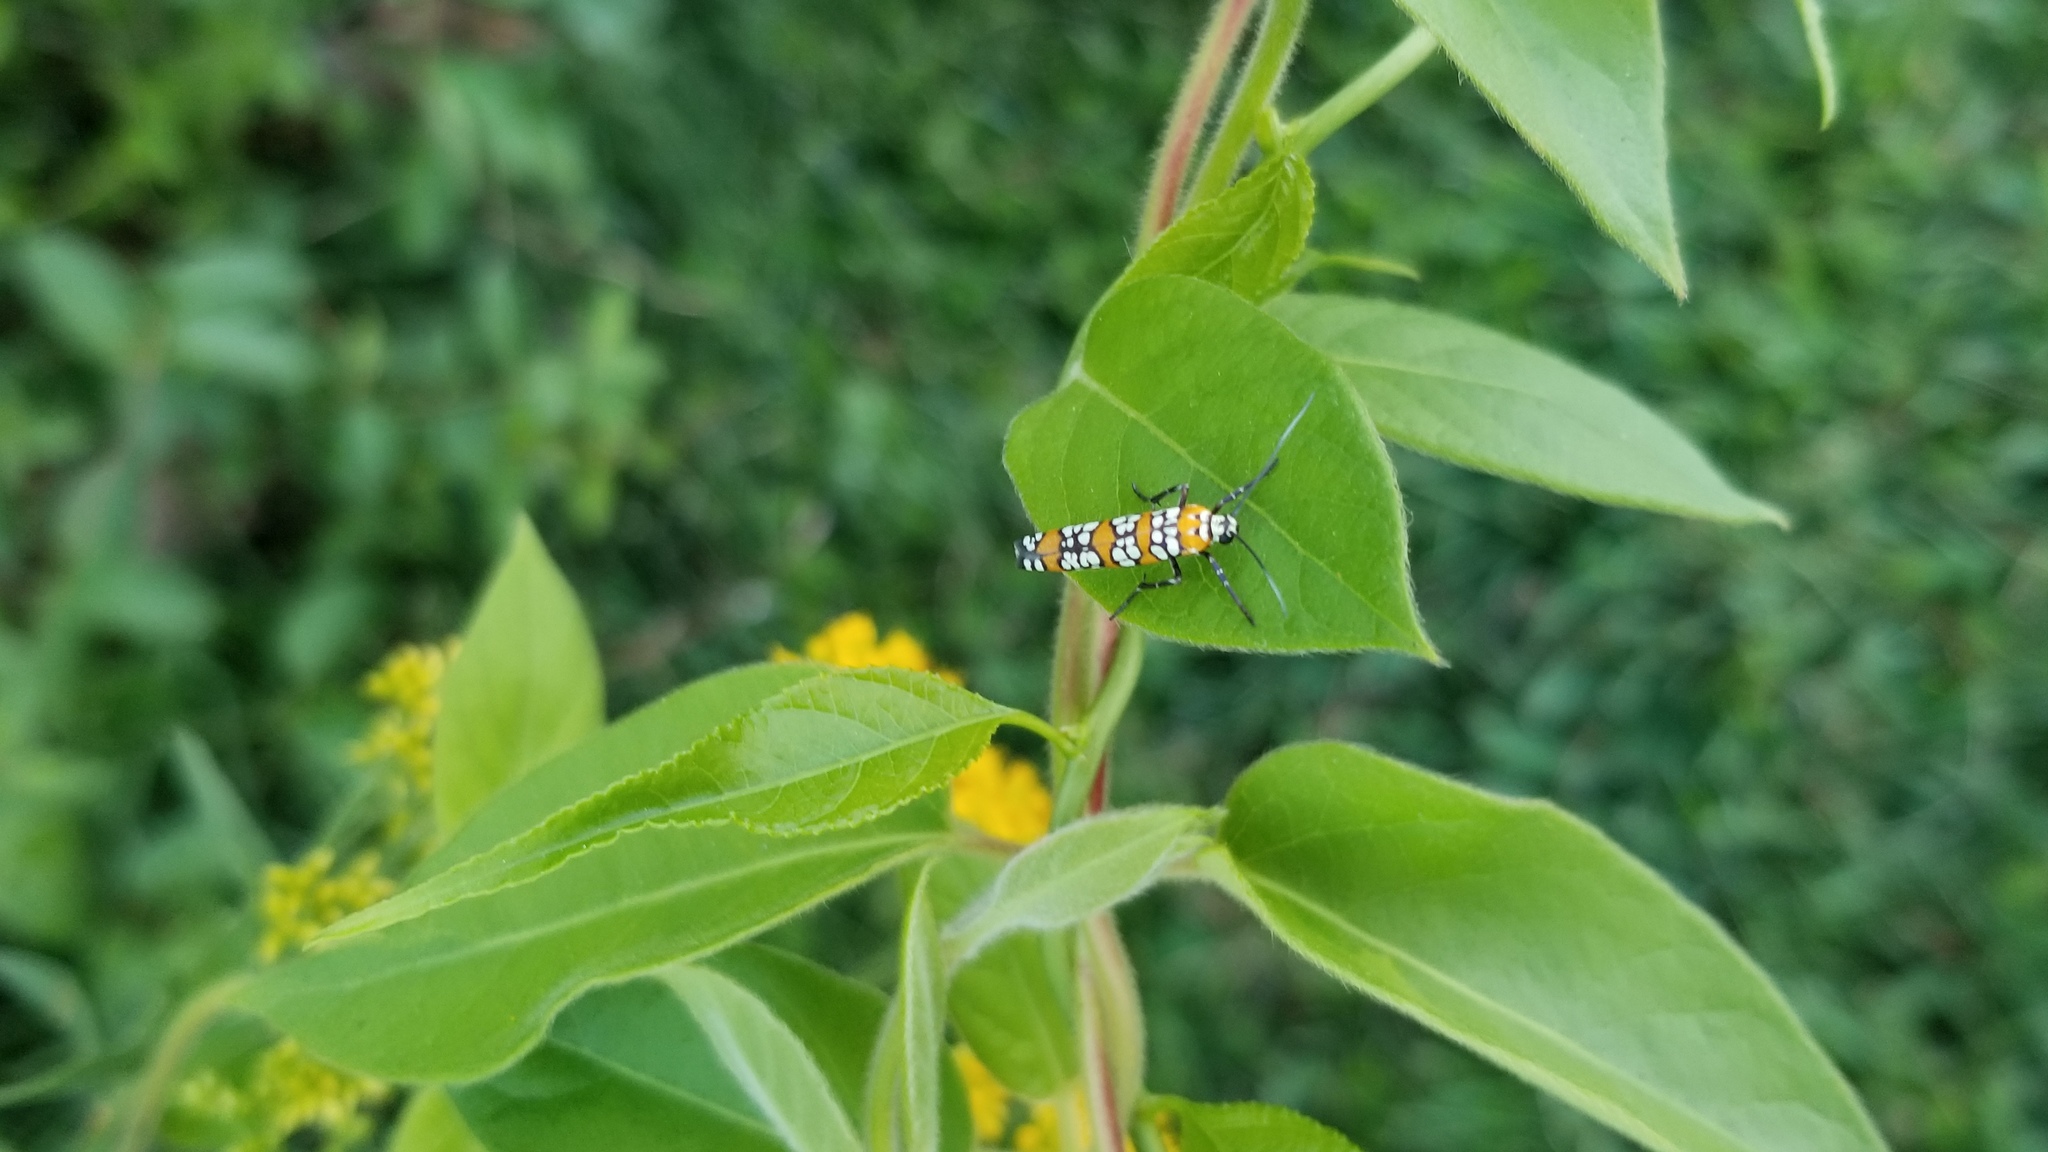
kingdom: Animalia
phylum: Arthropoda
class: Insecta
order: Lepidoptera
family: Attevidae
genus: Atteva
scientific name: Atteva punctella
